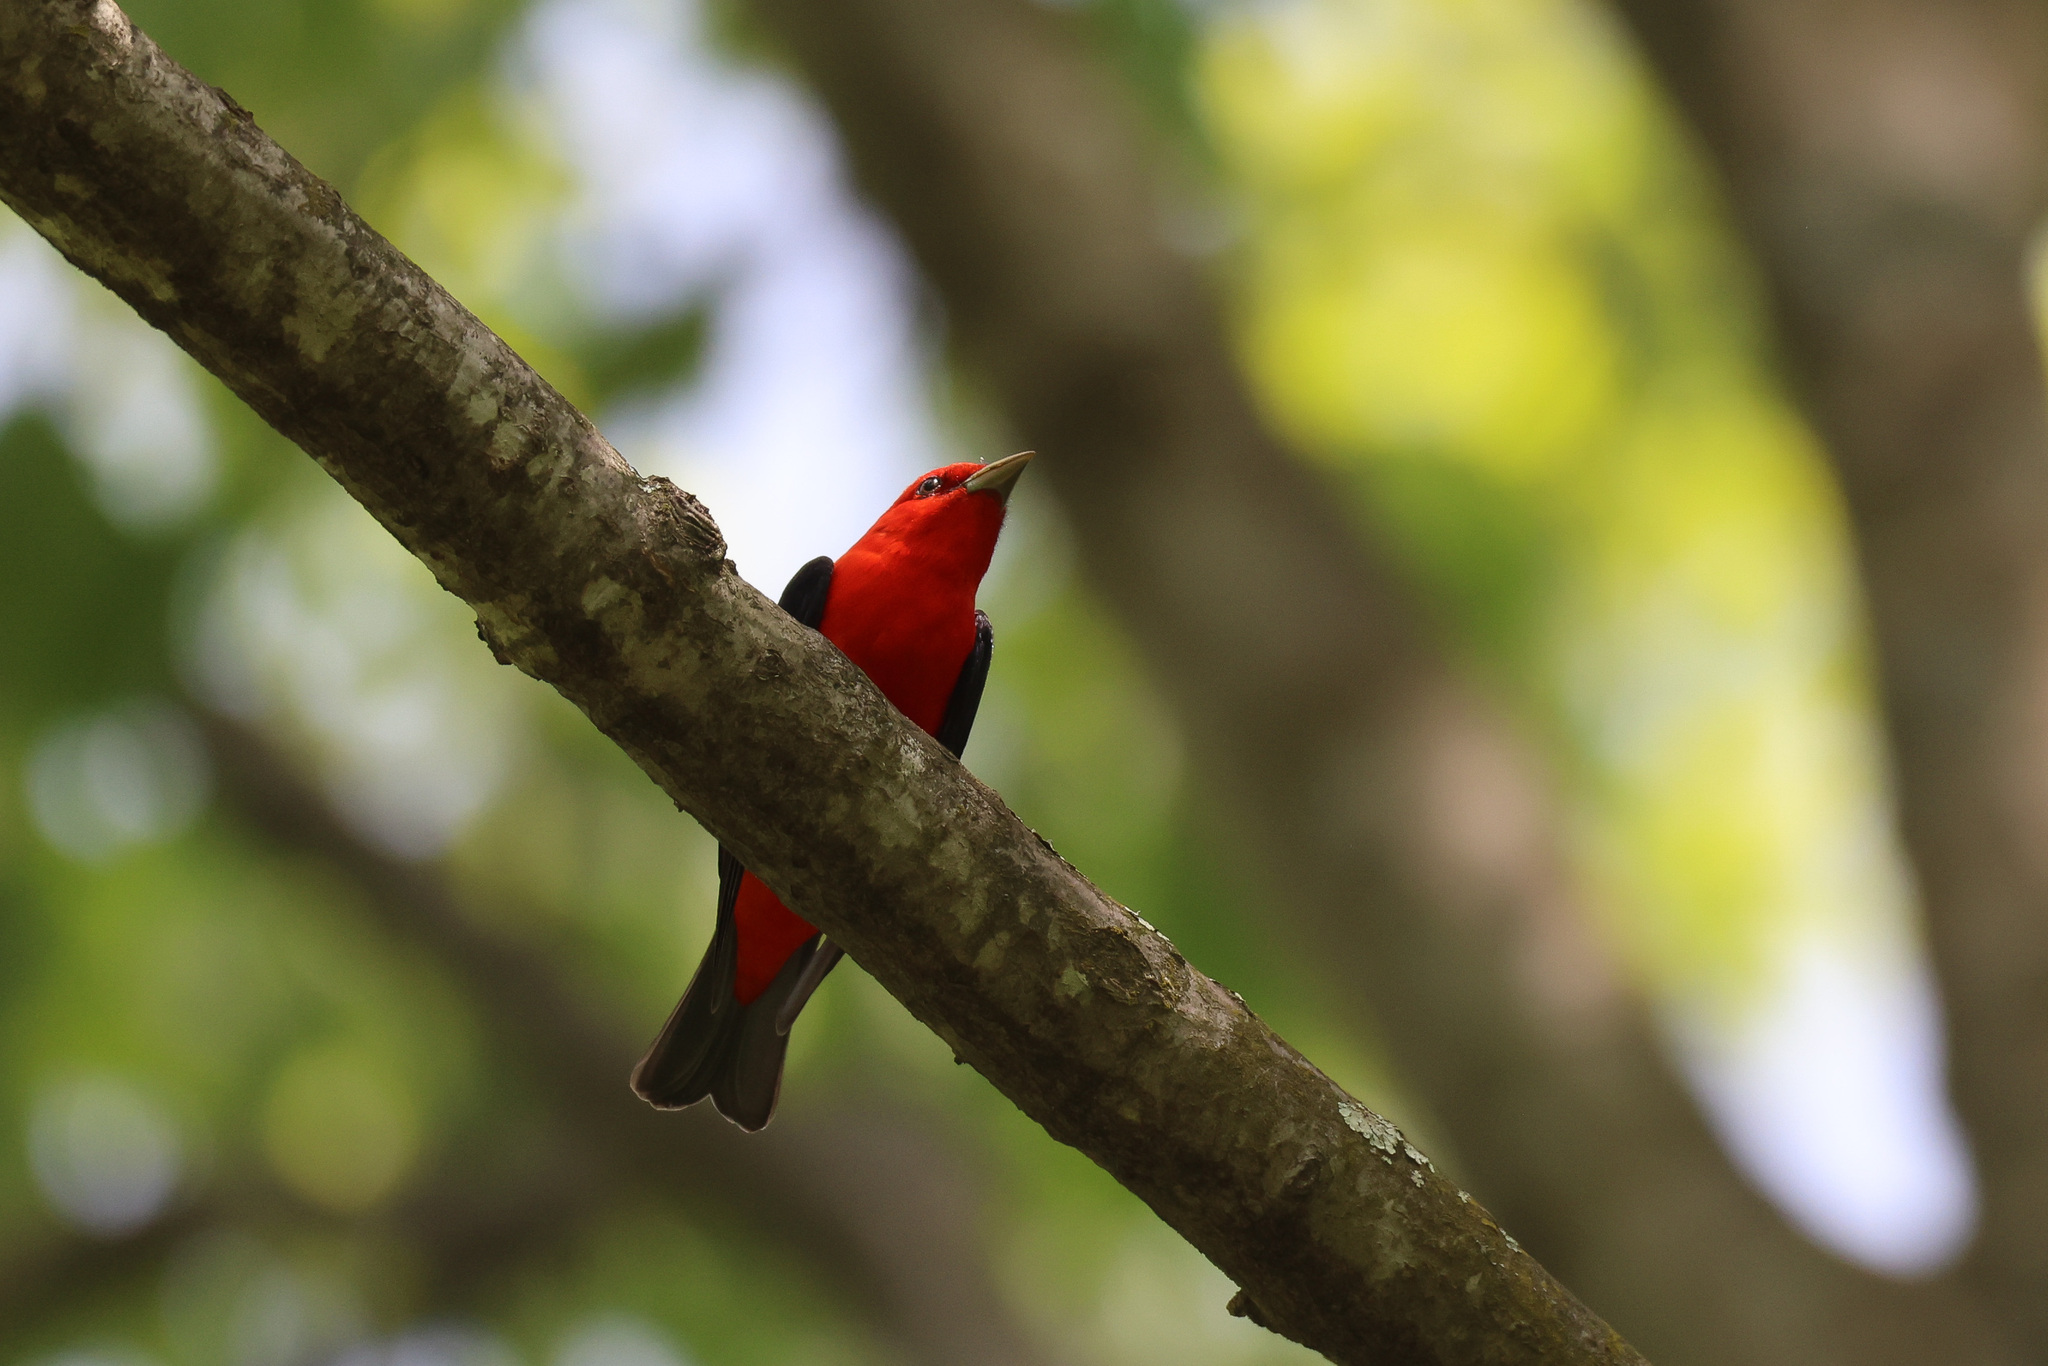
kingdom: Animalia
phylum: Chordata
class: Aves
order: Passeriformes
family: Cardinalidae
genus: Piranga
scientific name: Piranga olivacea
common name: Scarlet tanager
